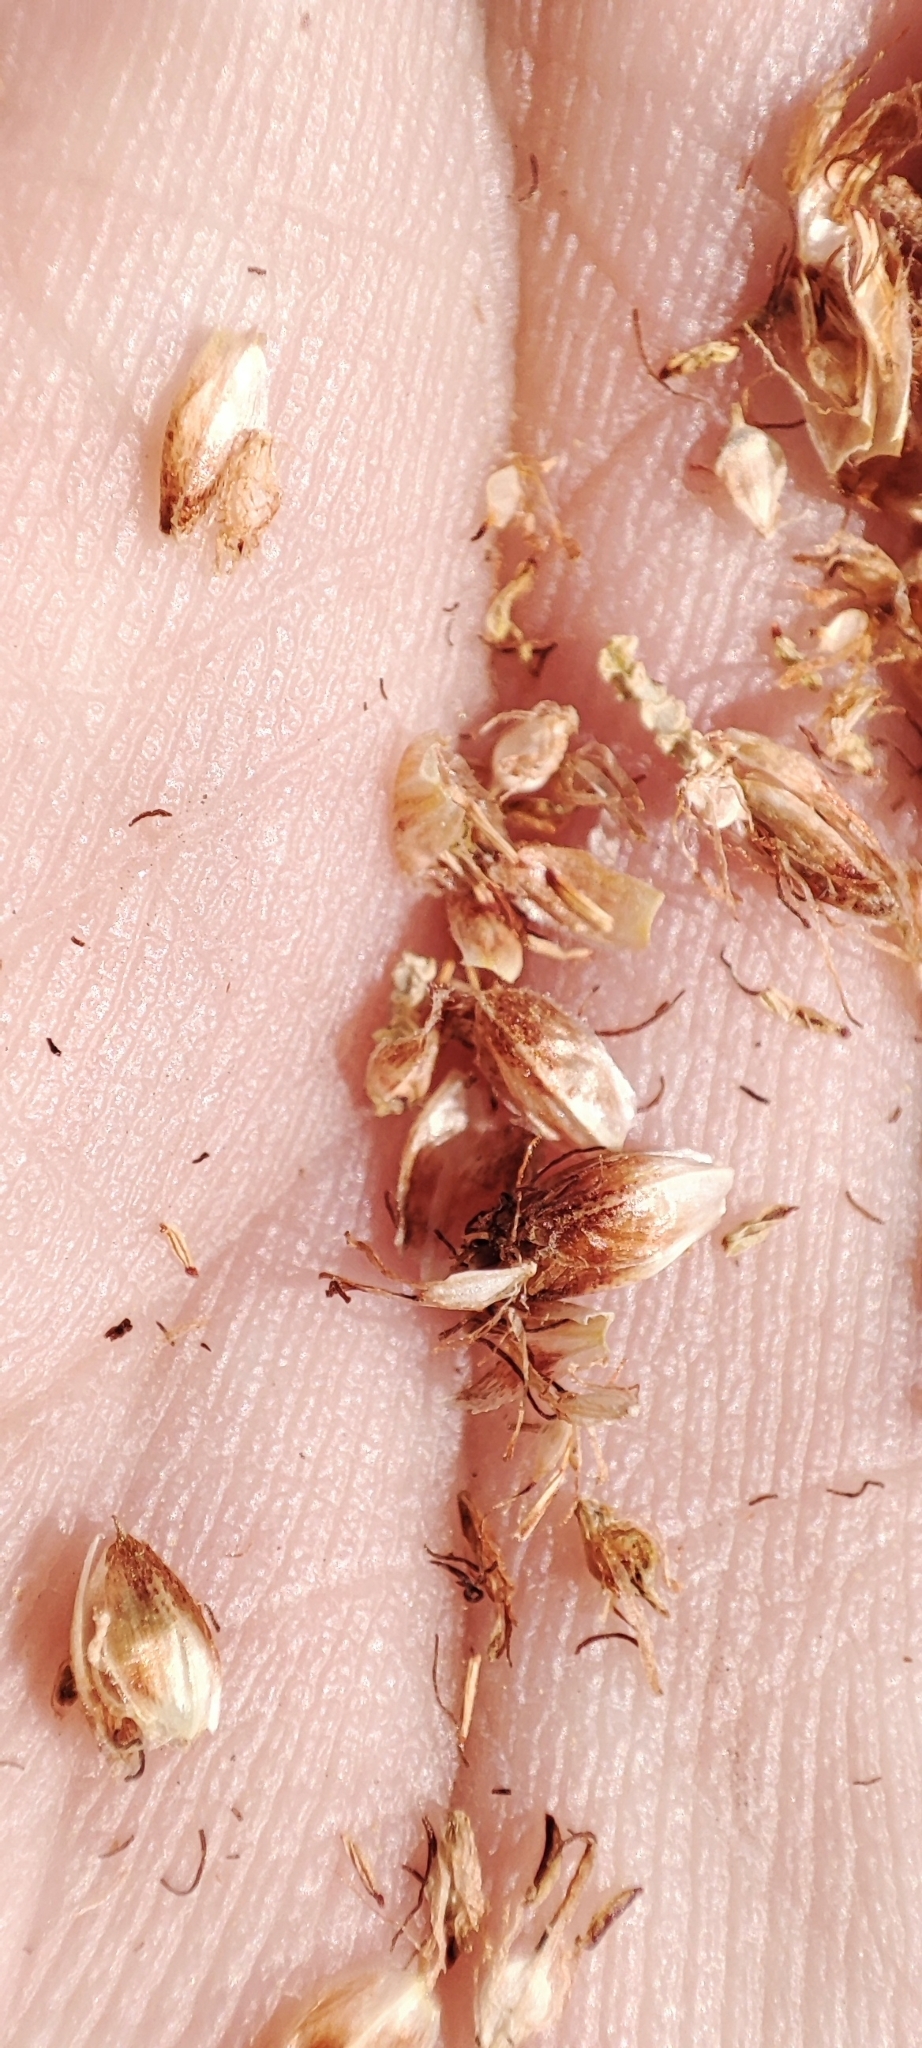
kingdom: Plantae
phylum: Tracheophyta
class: Liliopsida
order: Poales
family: Cyperaceae
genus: Bolboschoenus
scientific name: Bolboschoenus maritimus
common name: Sea club-rush
